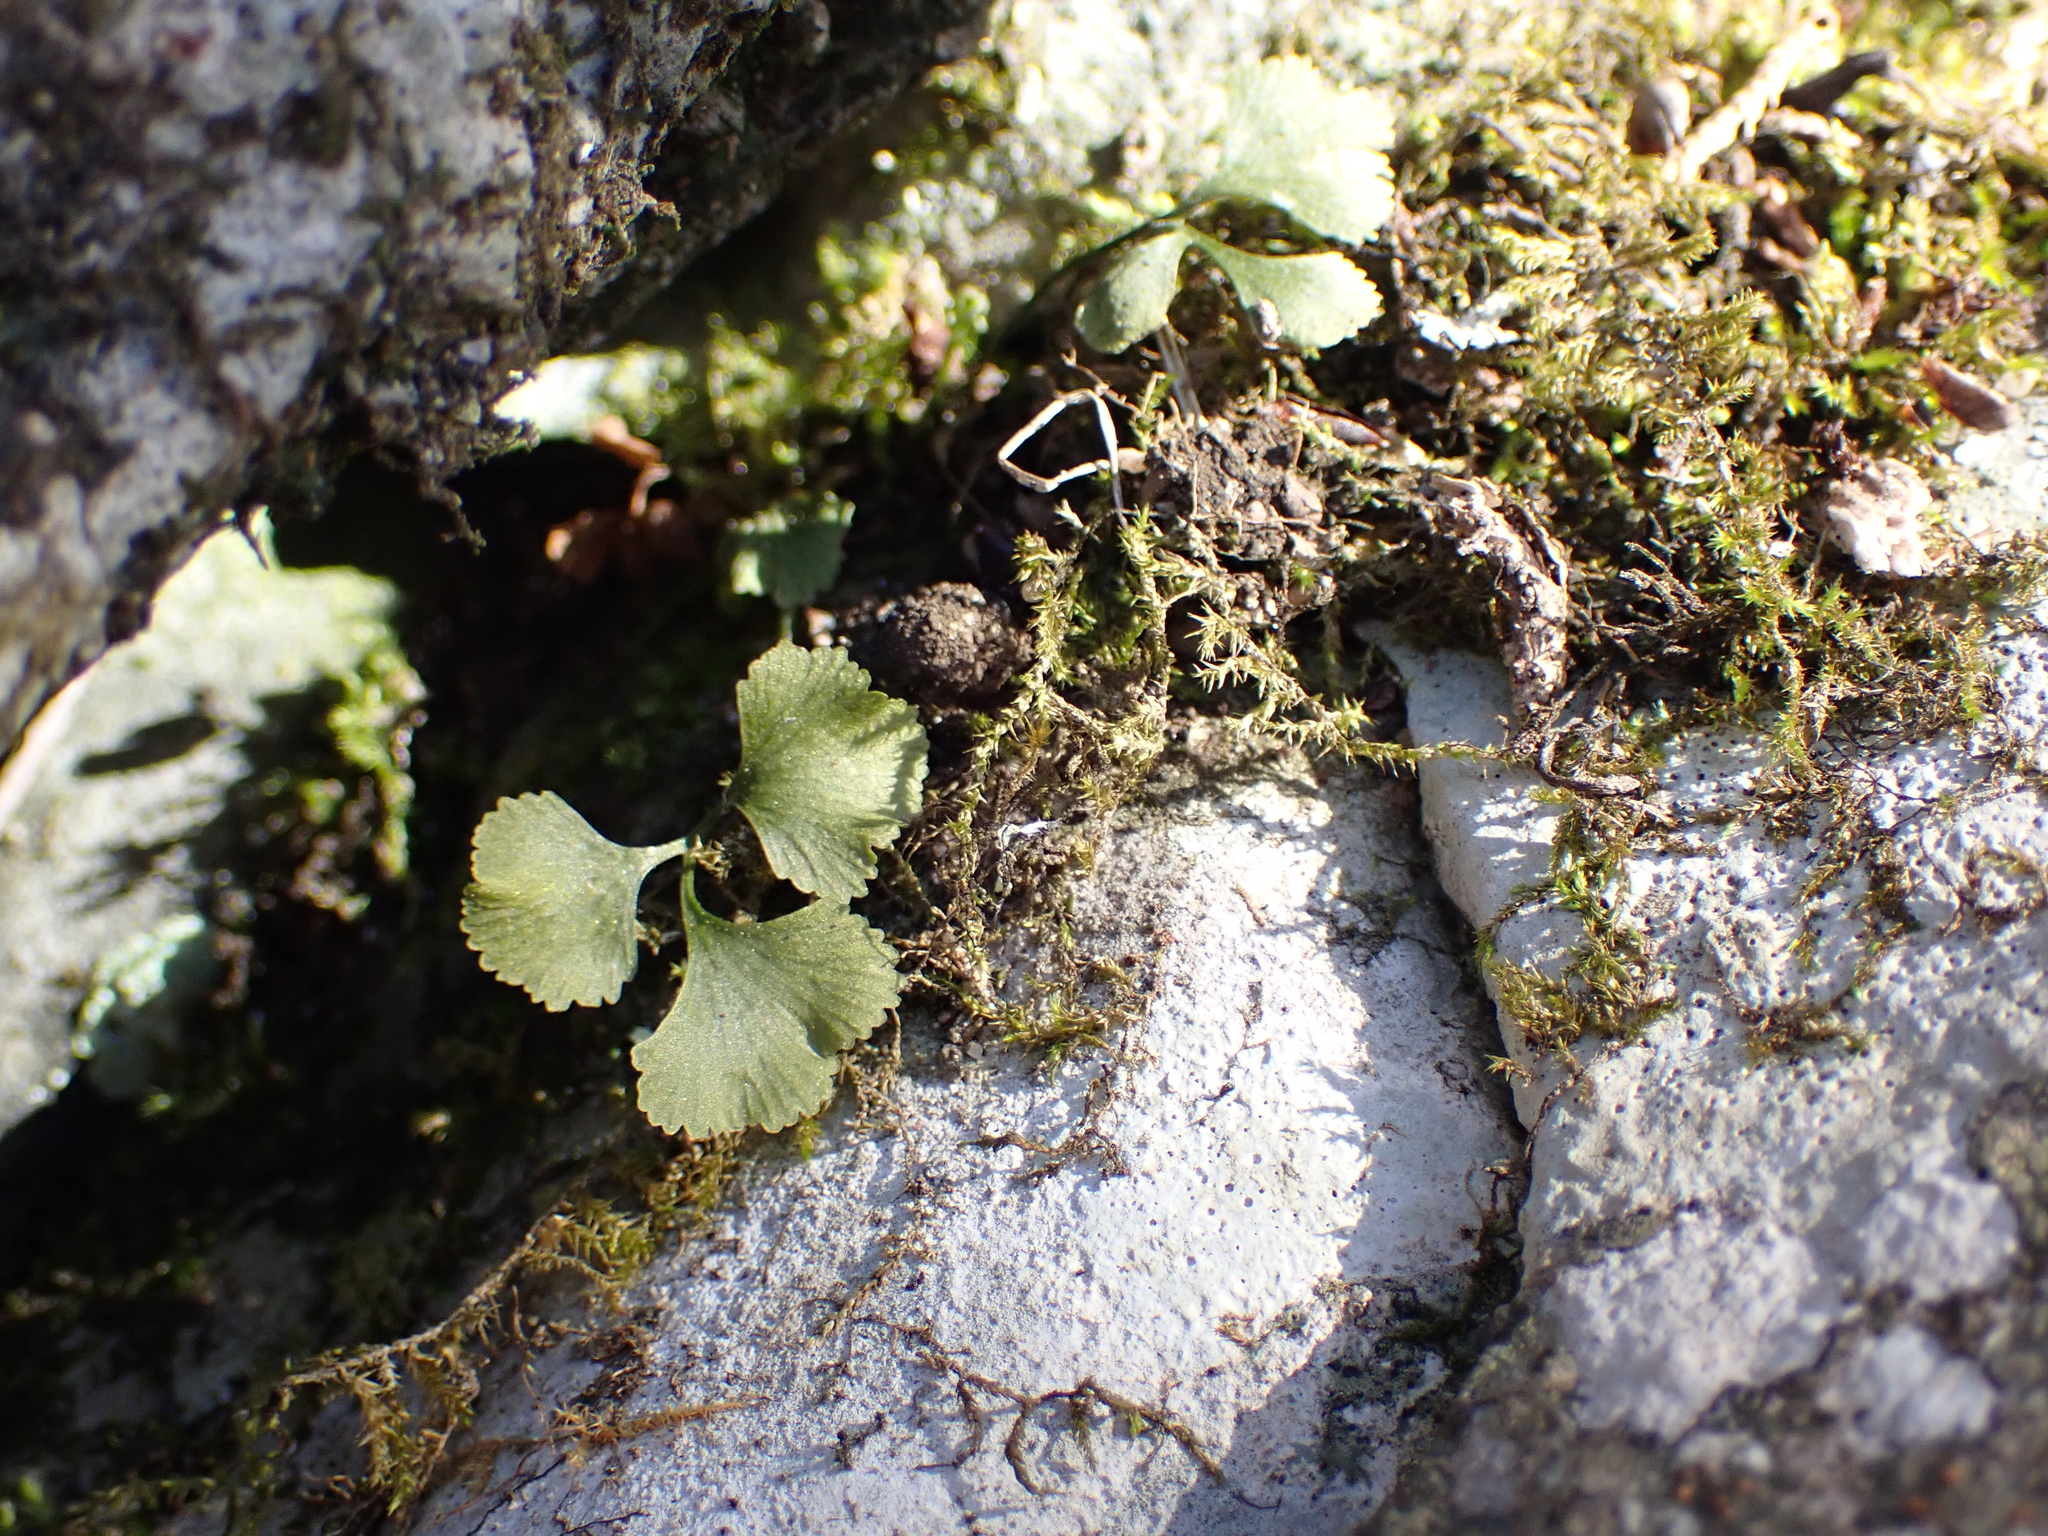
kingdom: Plantae
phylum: Tracheophyta
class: Polypodiopsida
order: Polypodiales
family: Aspleniaceae
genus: Asplenium
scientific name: Asplenium ruta-muraria
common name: Wall-rue
